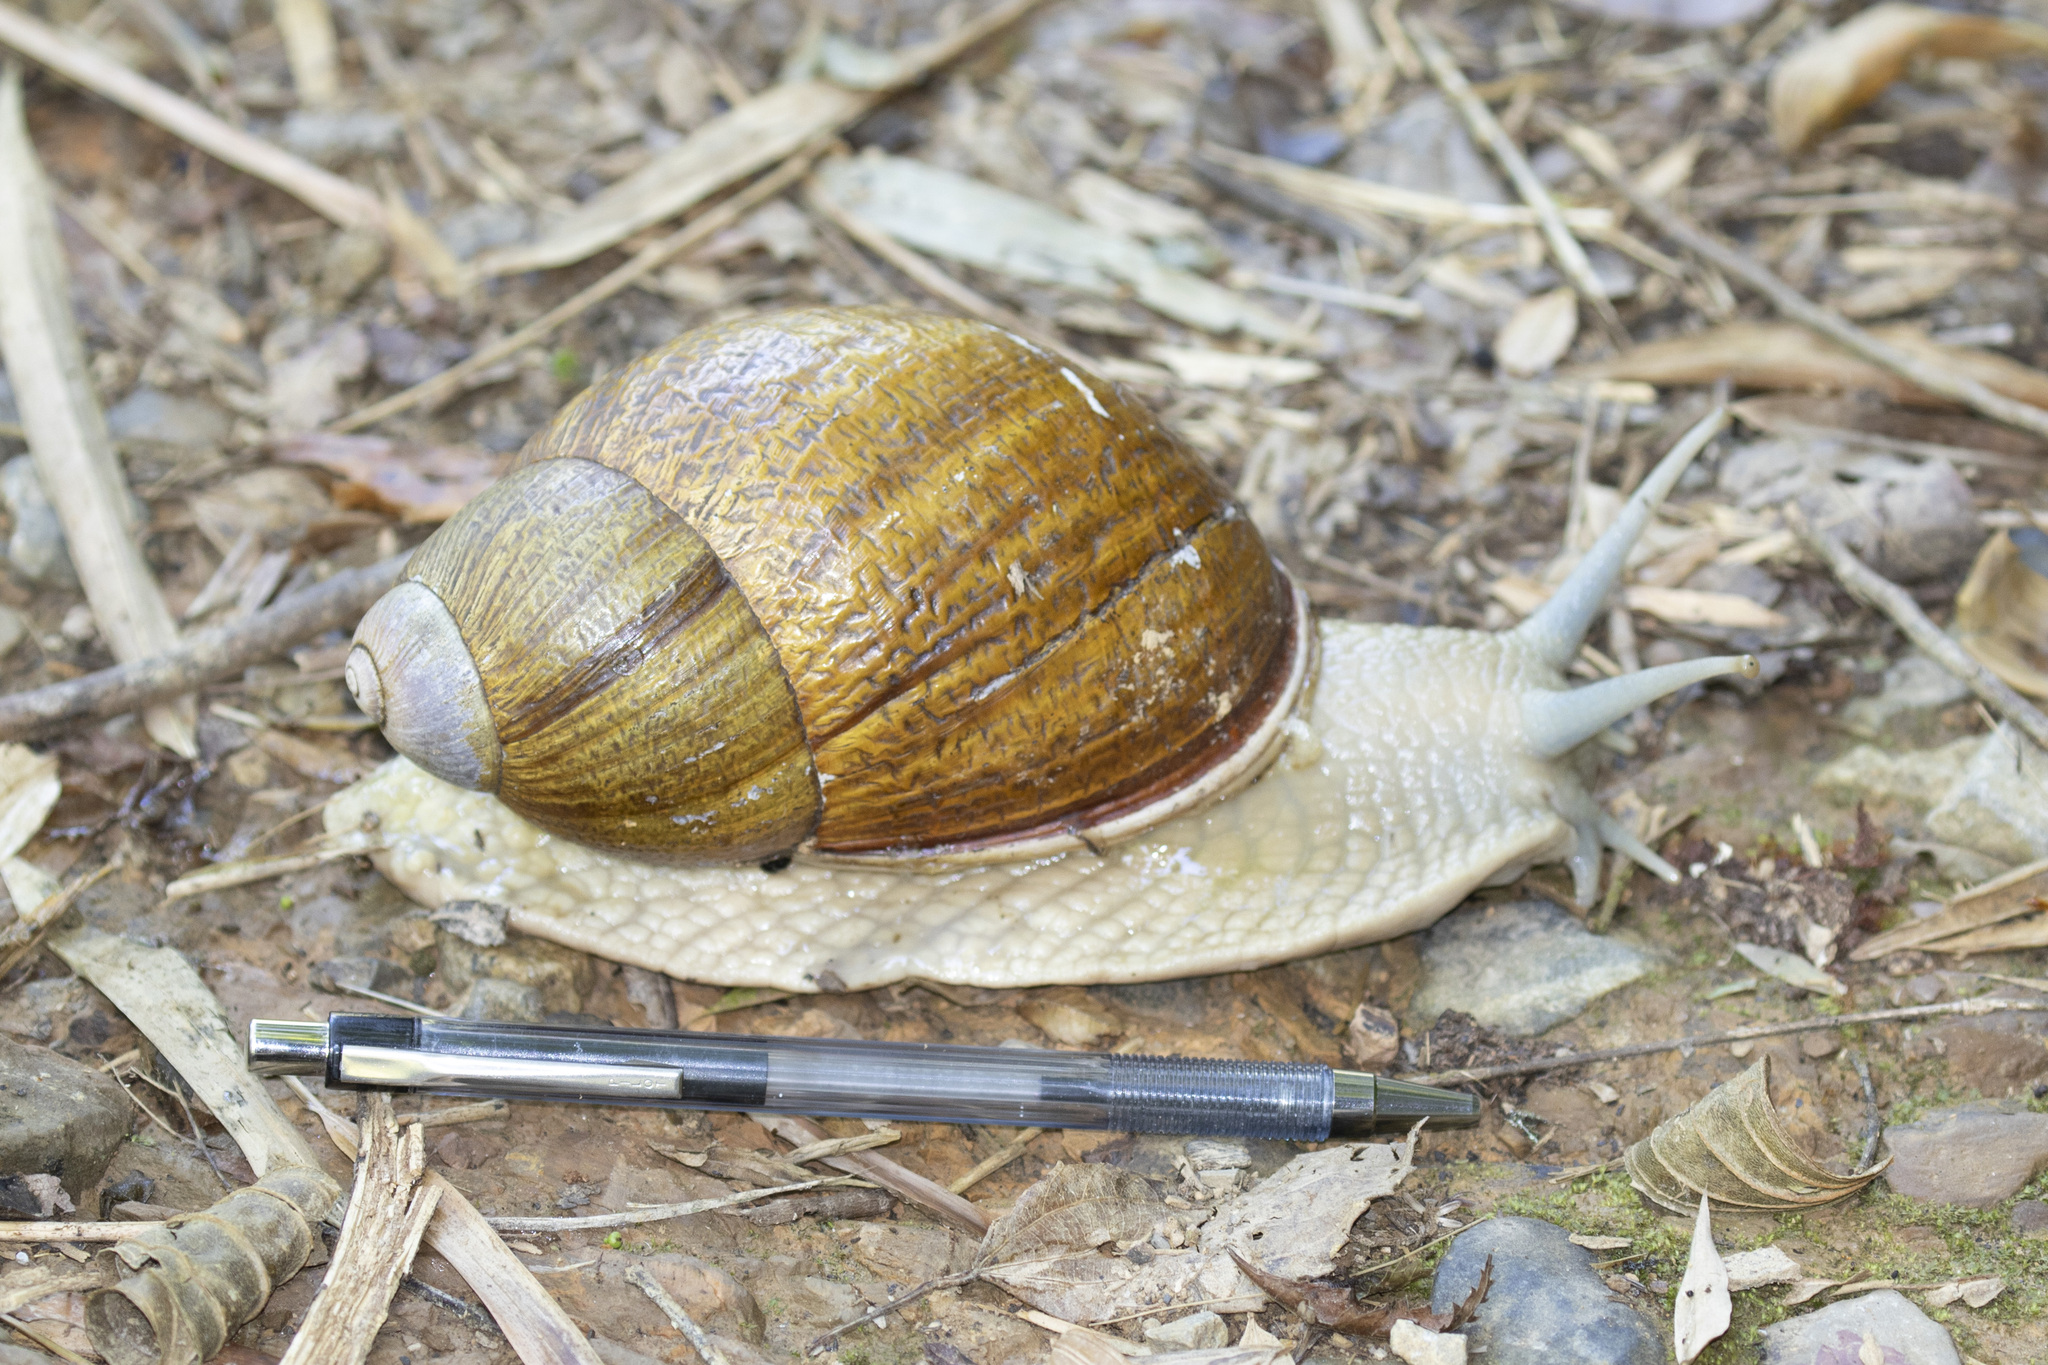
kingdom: Animalia
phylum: Mollusca
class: Gastropoda
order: Stylommatophora
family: Strophocheilidae
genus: Megalobulimus
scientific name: Megalobulimus dryades
